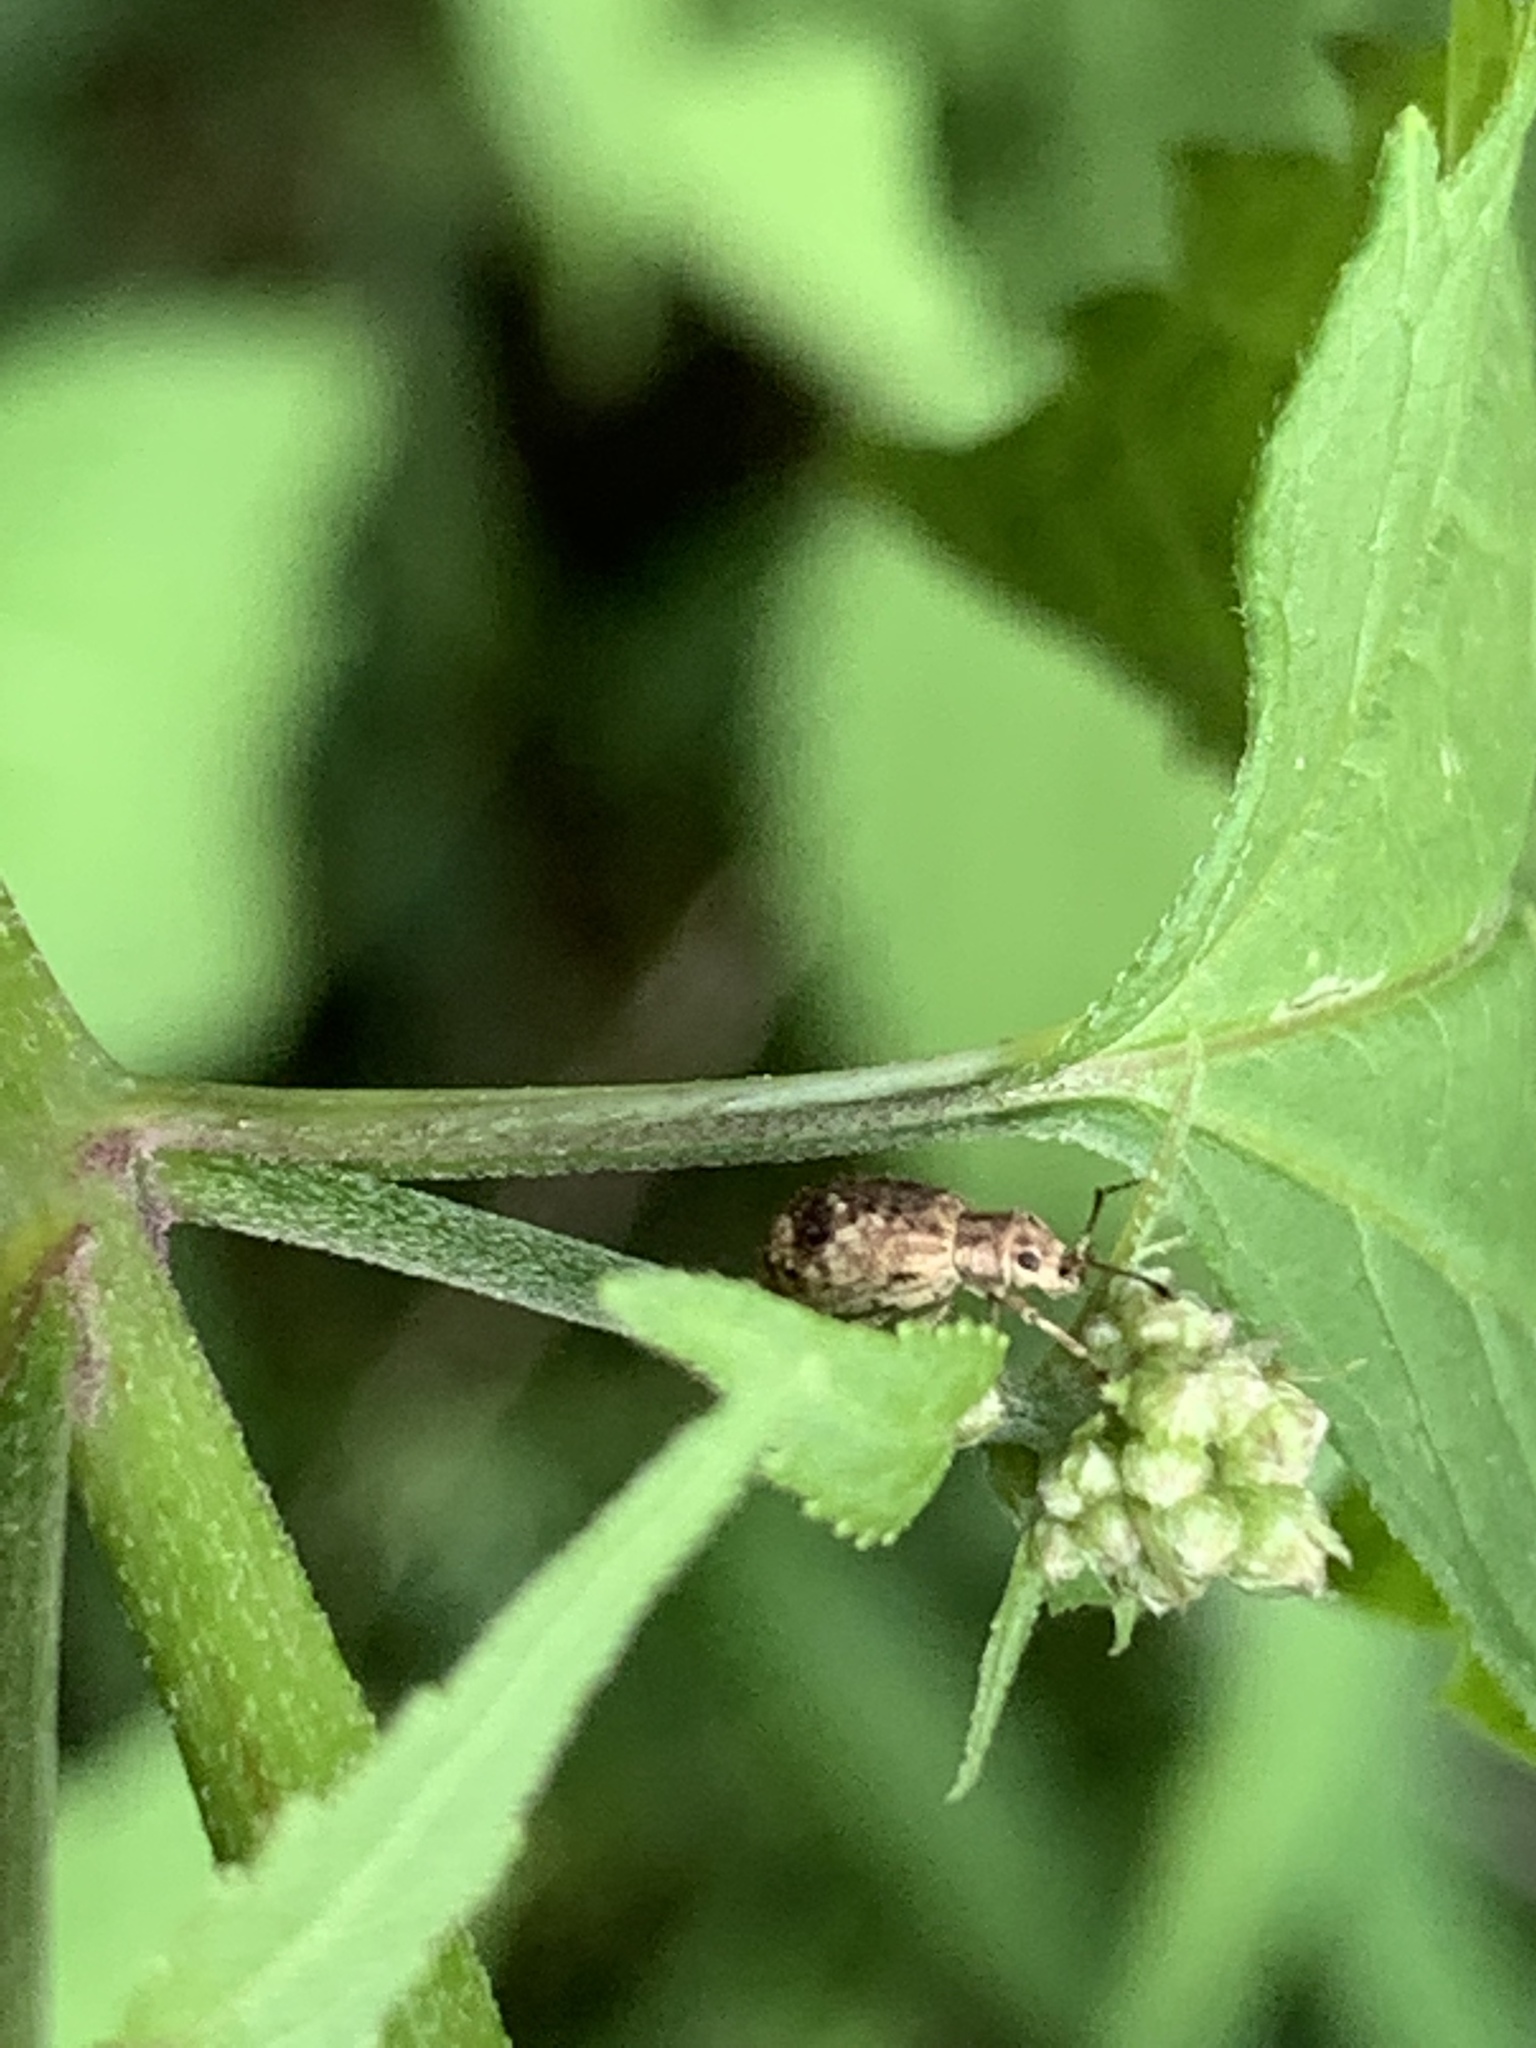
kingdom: Animalia
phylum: Arthropoda
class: Insecta
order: Coleoptera
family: Curculionidae
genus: Pseudoedophrys
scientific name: Pseudoedophrys hilleri
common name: Weevil
